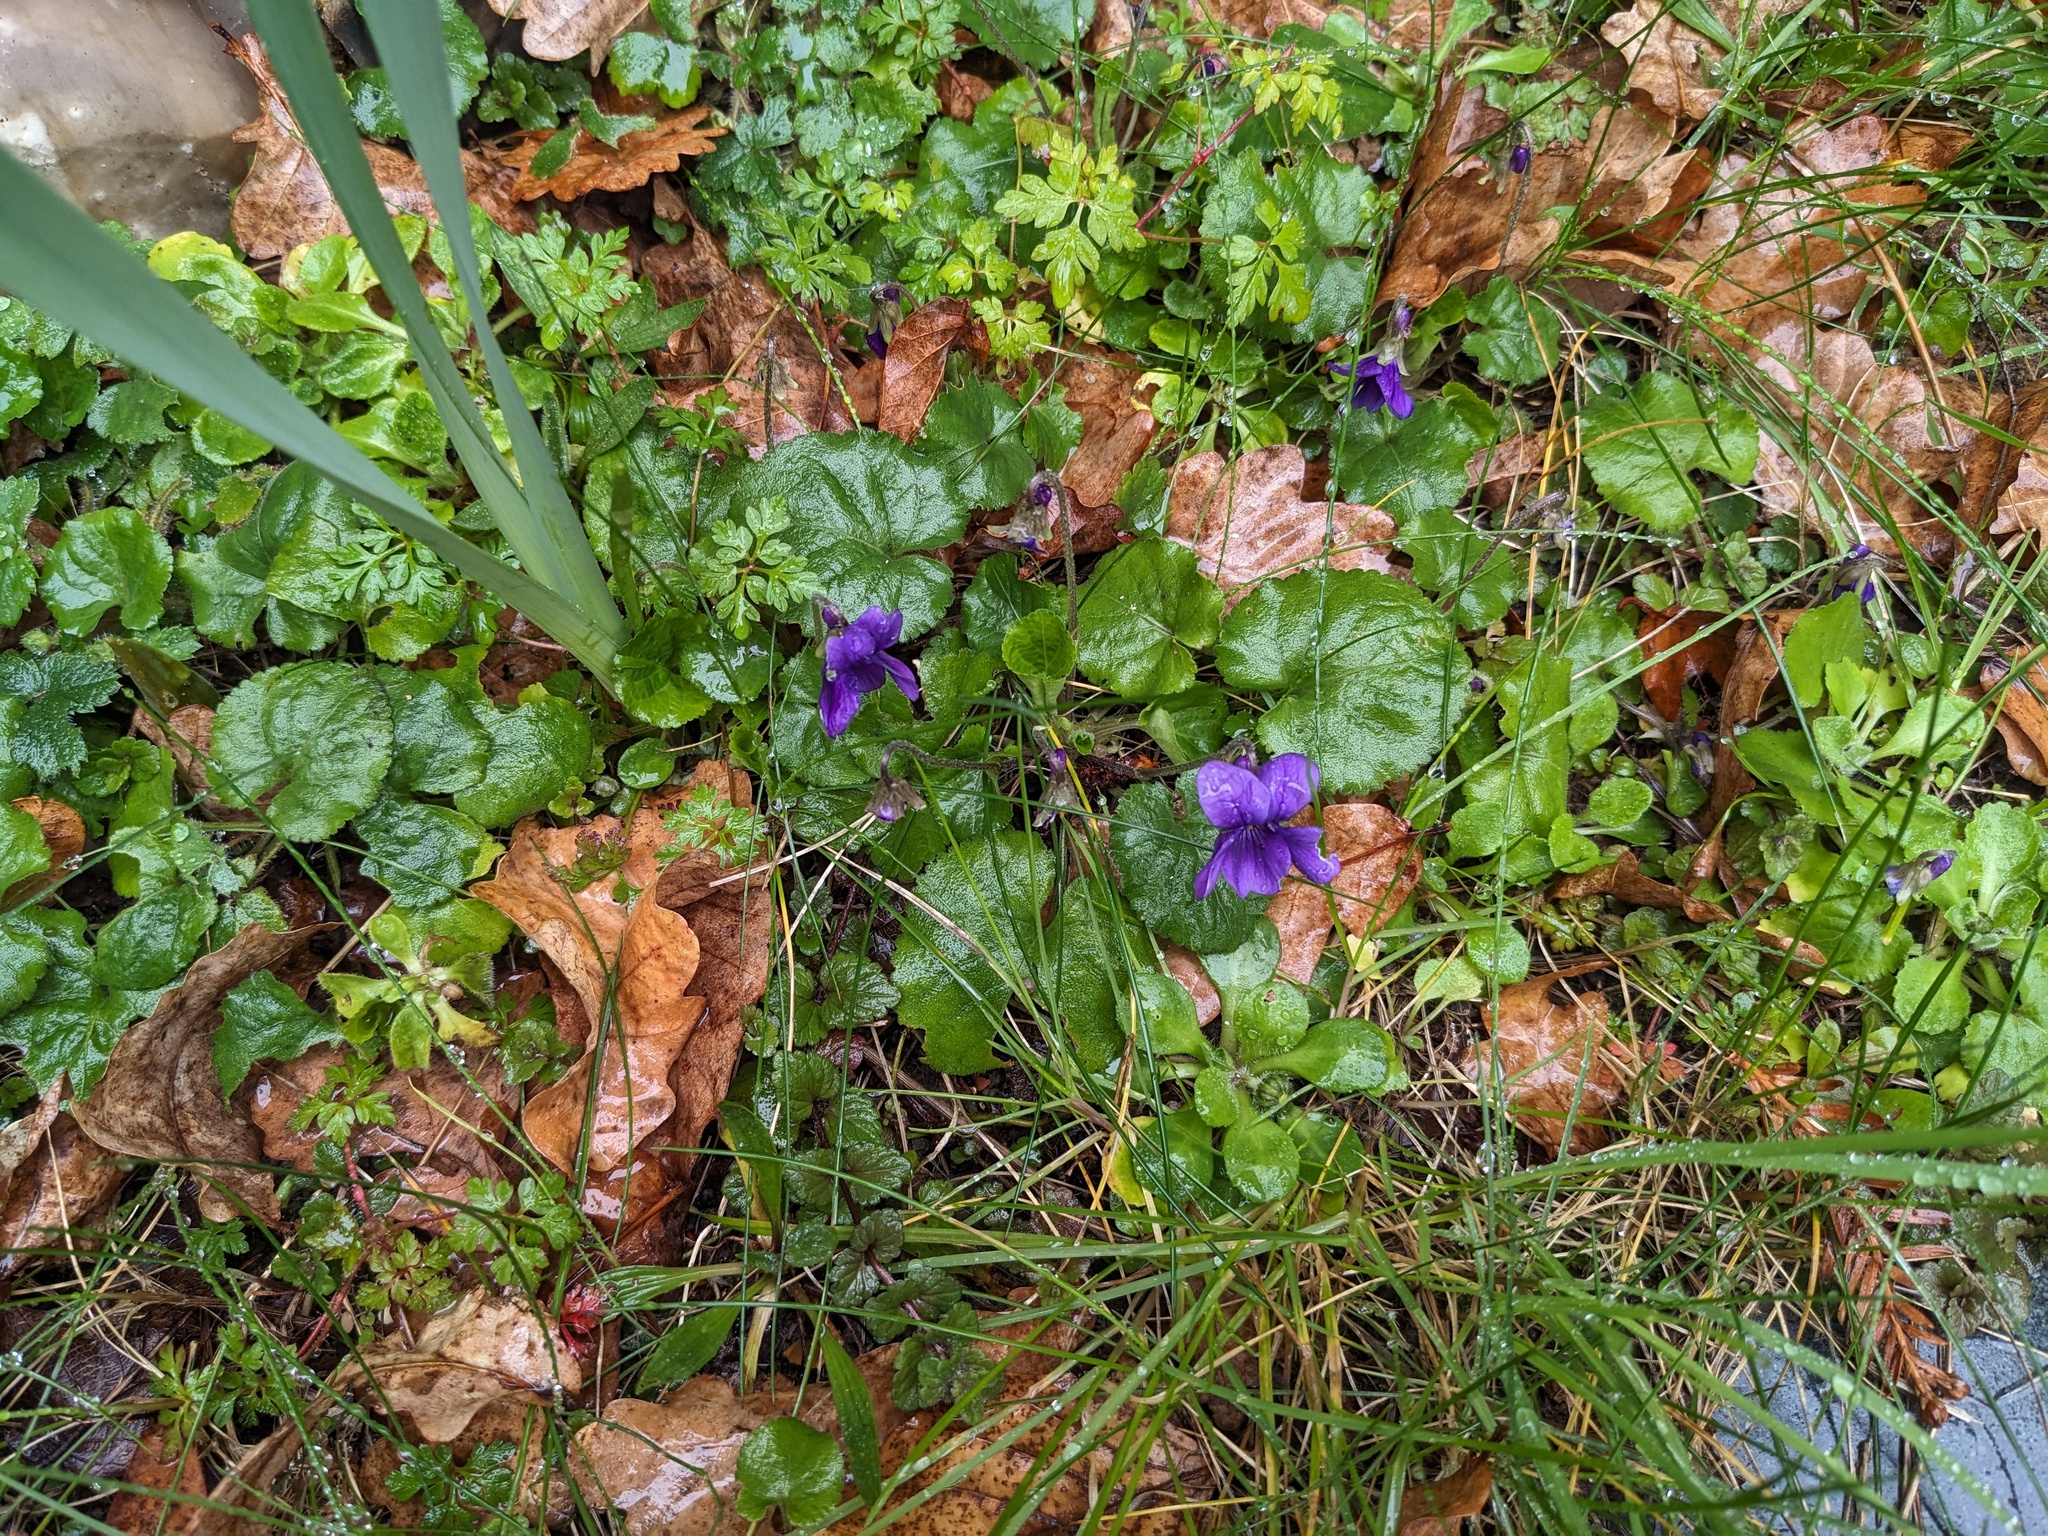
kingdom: Plantae
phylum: Tracheophyta
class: Magnoliopsida
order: Malpighiales
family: Violaceae
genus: Viola
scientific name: Viola odorata
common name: Sweet violet
